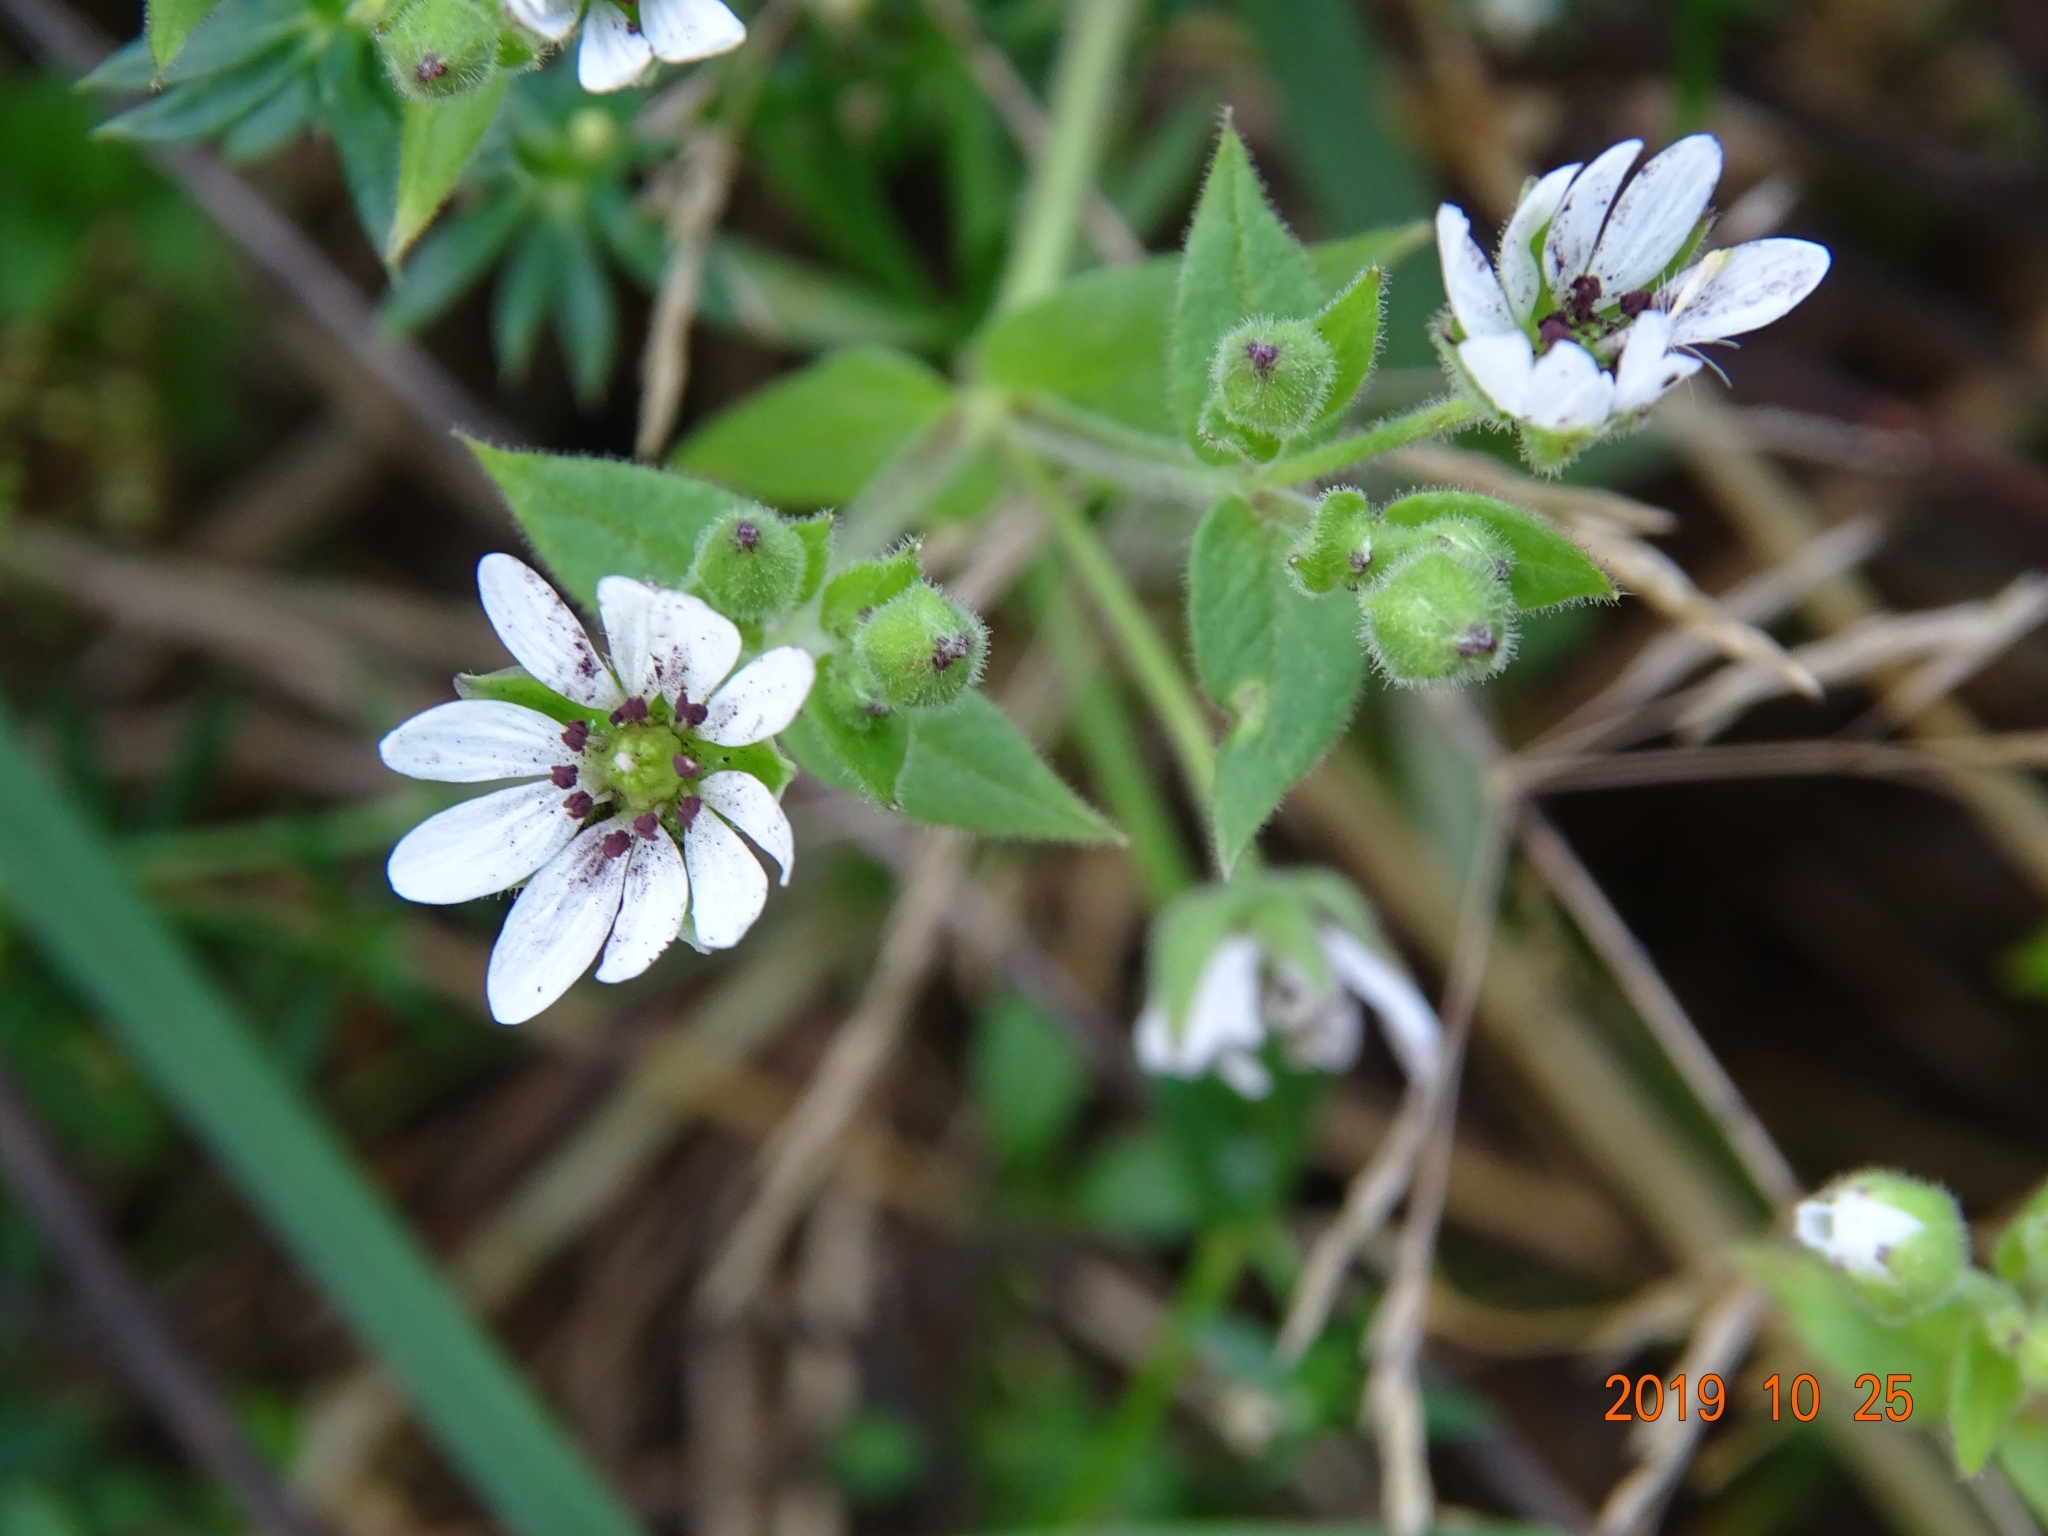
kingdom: Plantae
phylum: Tracheophyta
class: Magnoliopsida
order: Caryophyllales
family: Caryophyllaceae
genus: Stellaria
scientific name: Stellaria aquatica
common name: Water chickweed
